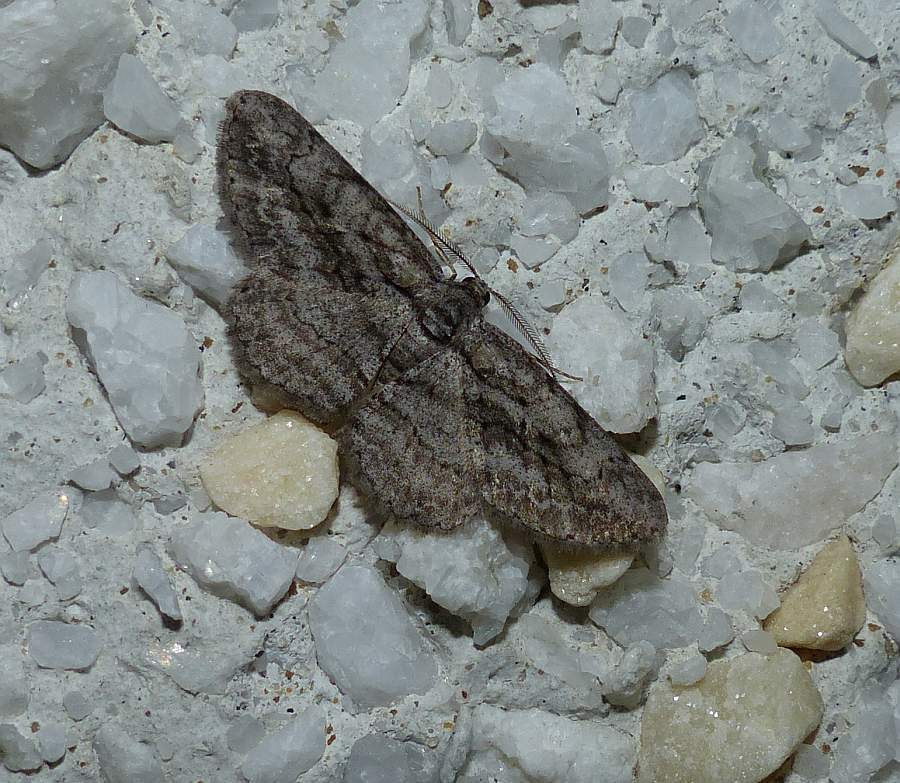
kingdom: Animalia
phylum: Arthropoda
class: Insecta
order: Lepidoptera
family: Geometridae
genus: Anavitrinella
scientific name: Anavitrinella pampinaria
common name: Common gray
